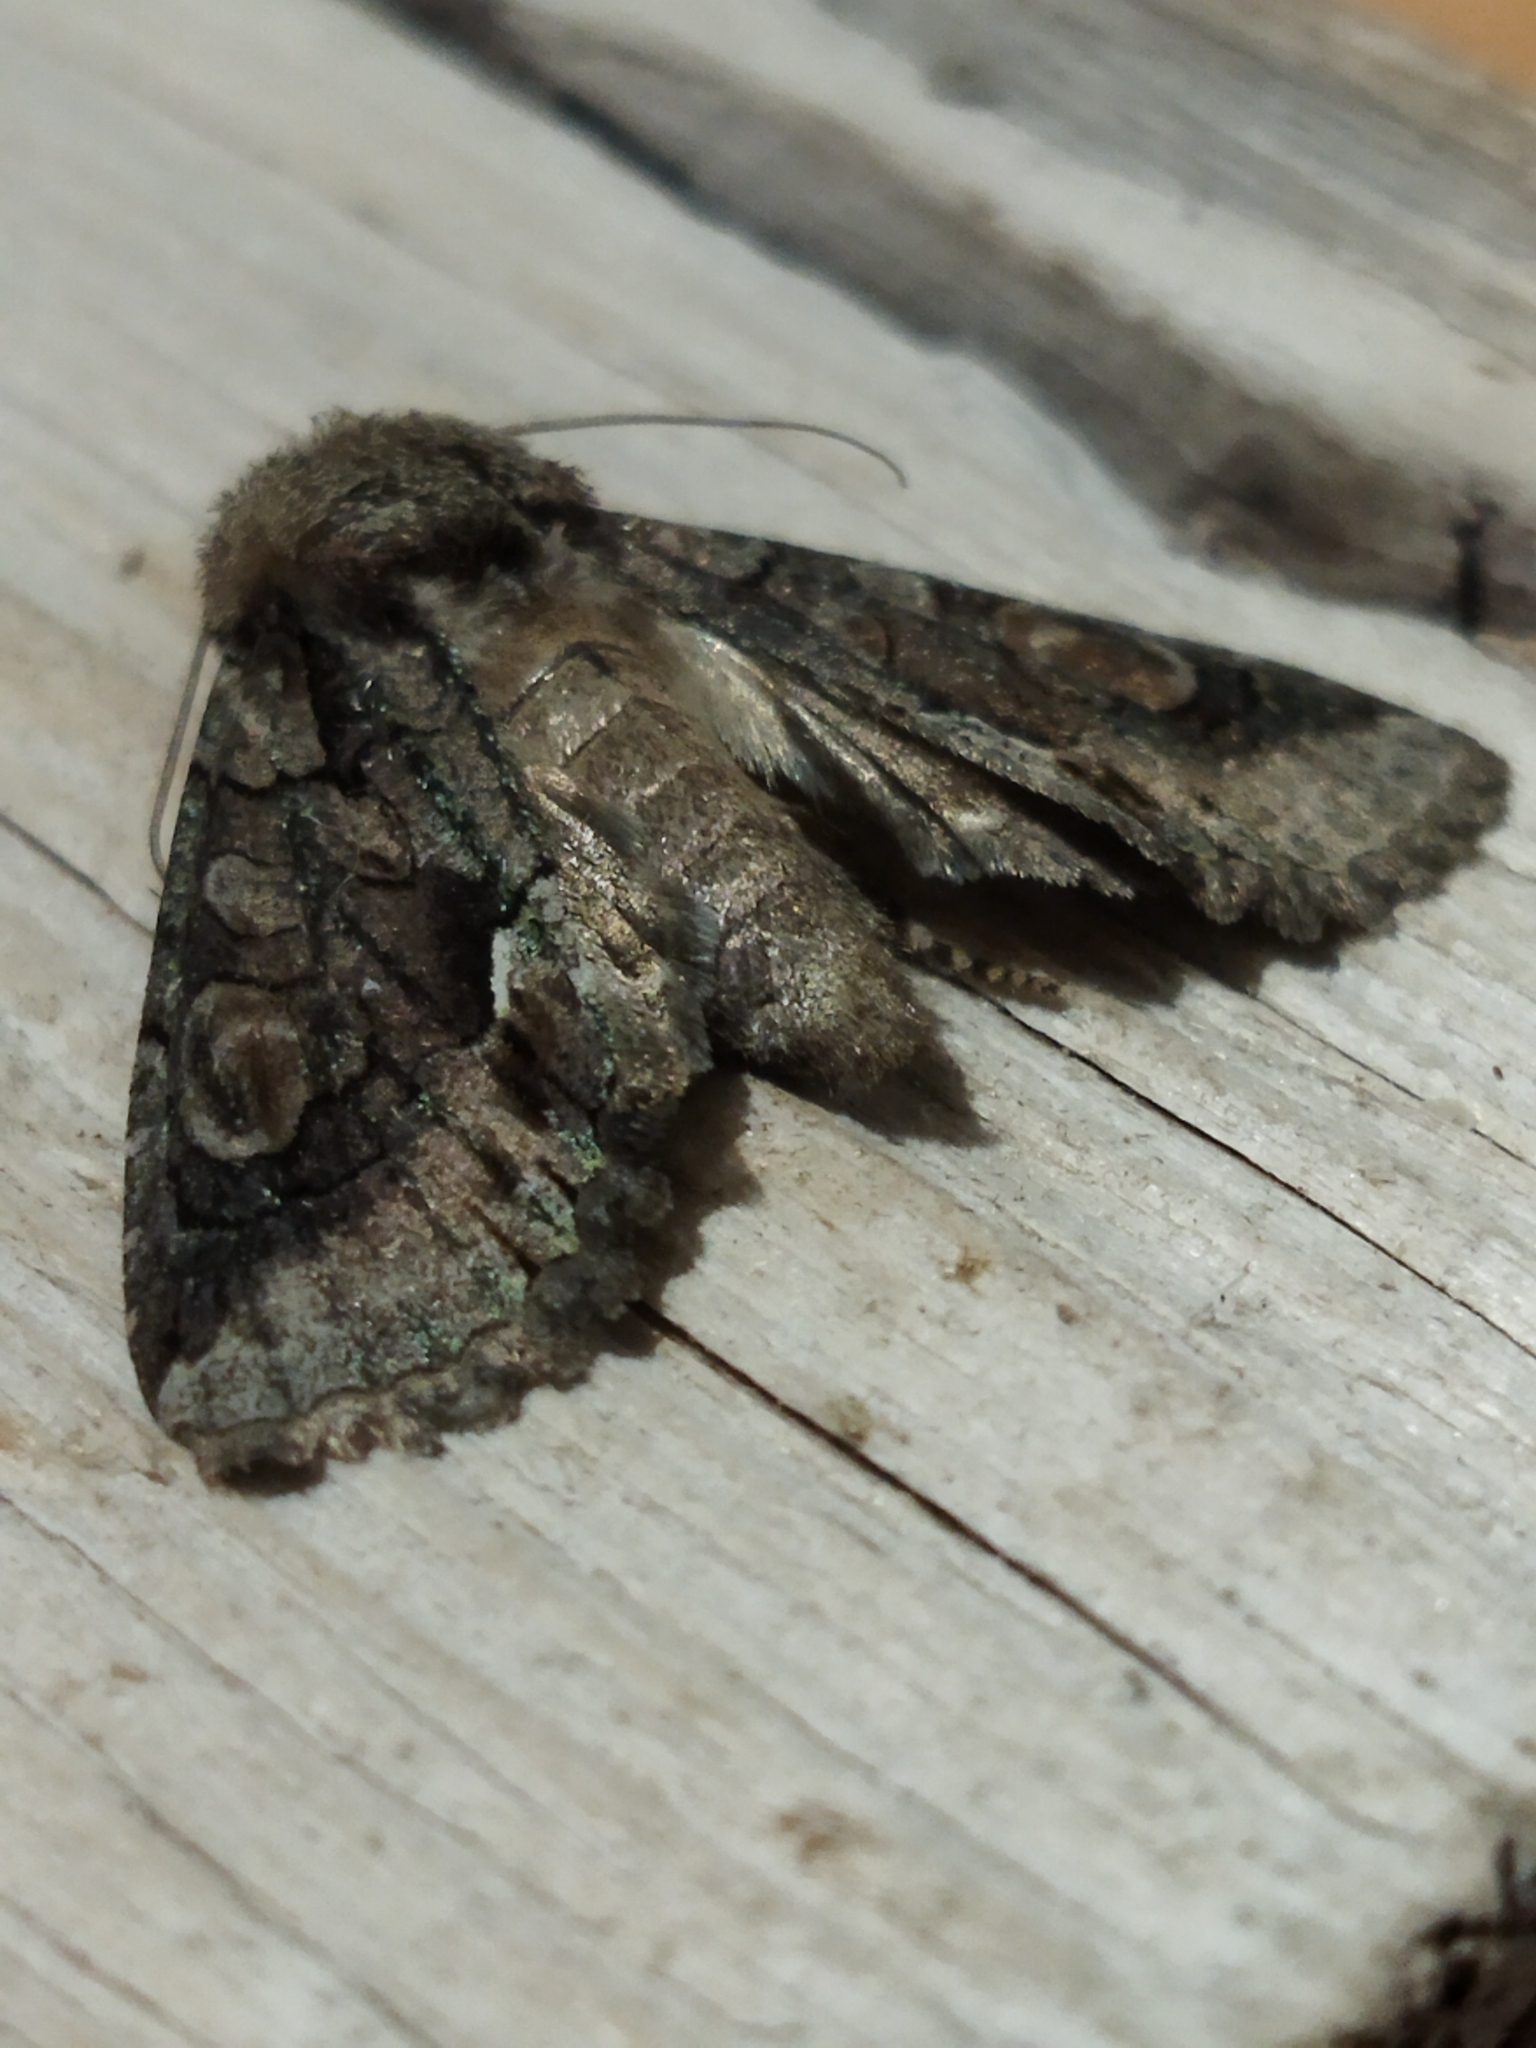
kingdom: Animalia
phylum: Arthropoda
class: Insecta
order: Lepidoptera
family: Noctuidae
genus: Allophyes
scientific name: Allophyes oxyacanthae
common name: Green-brindled crescent
